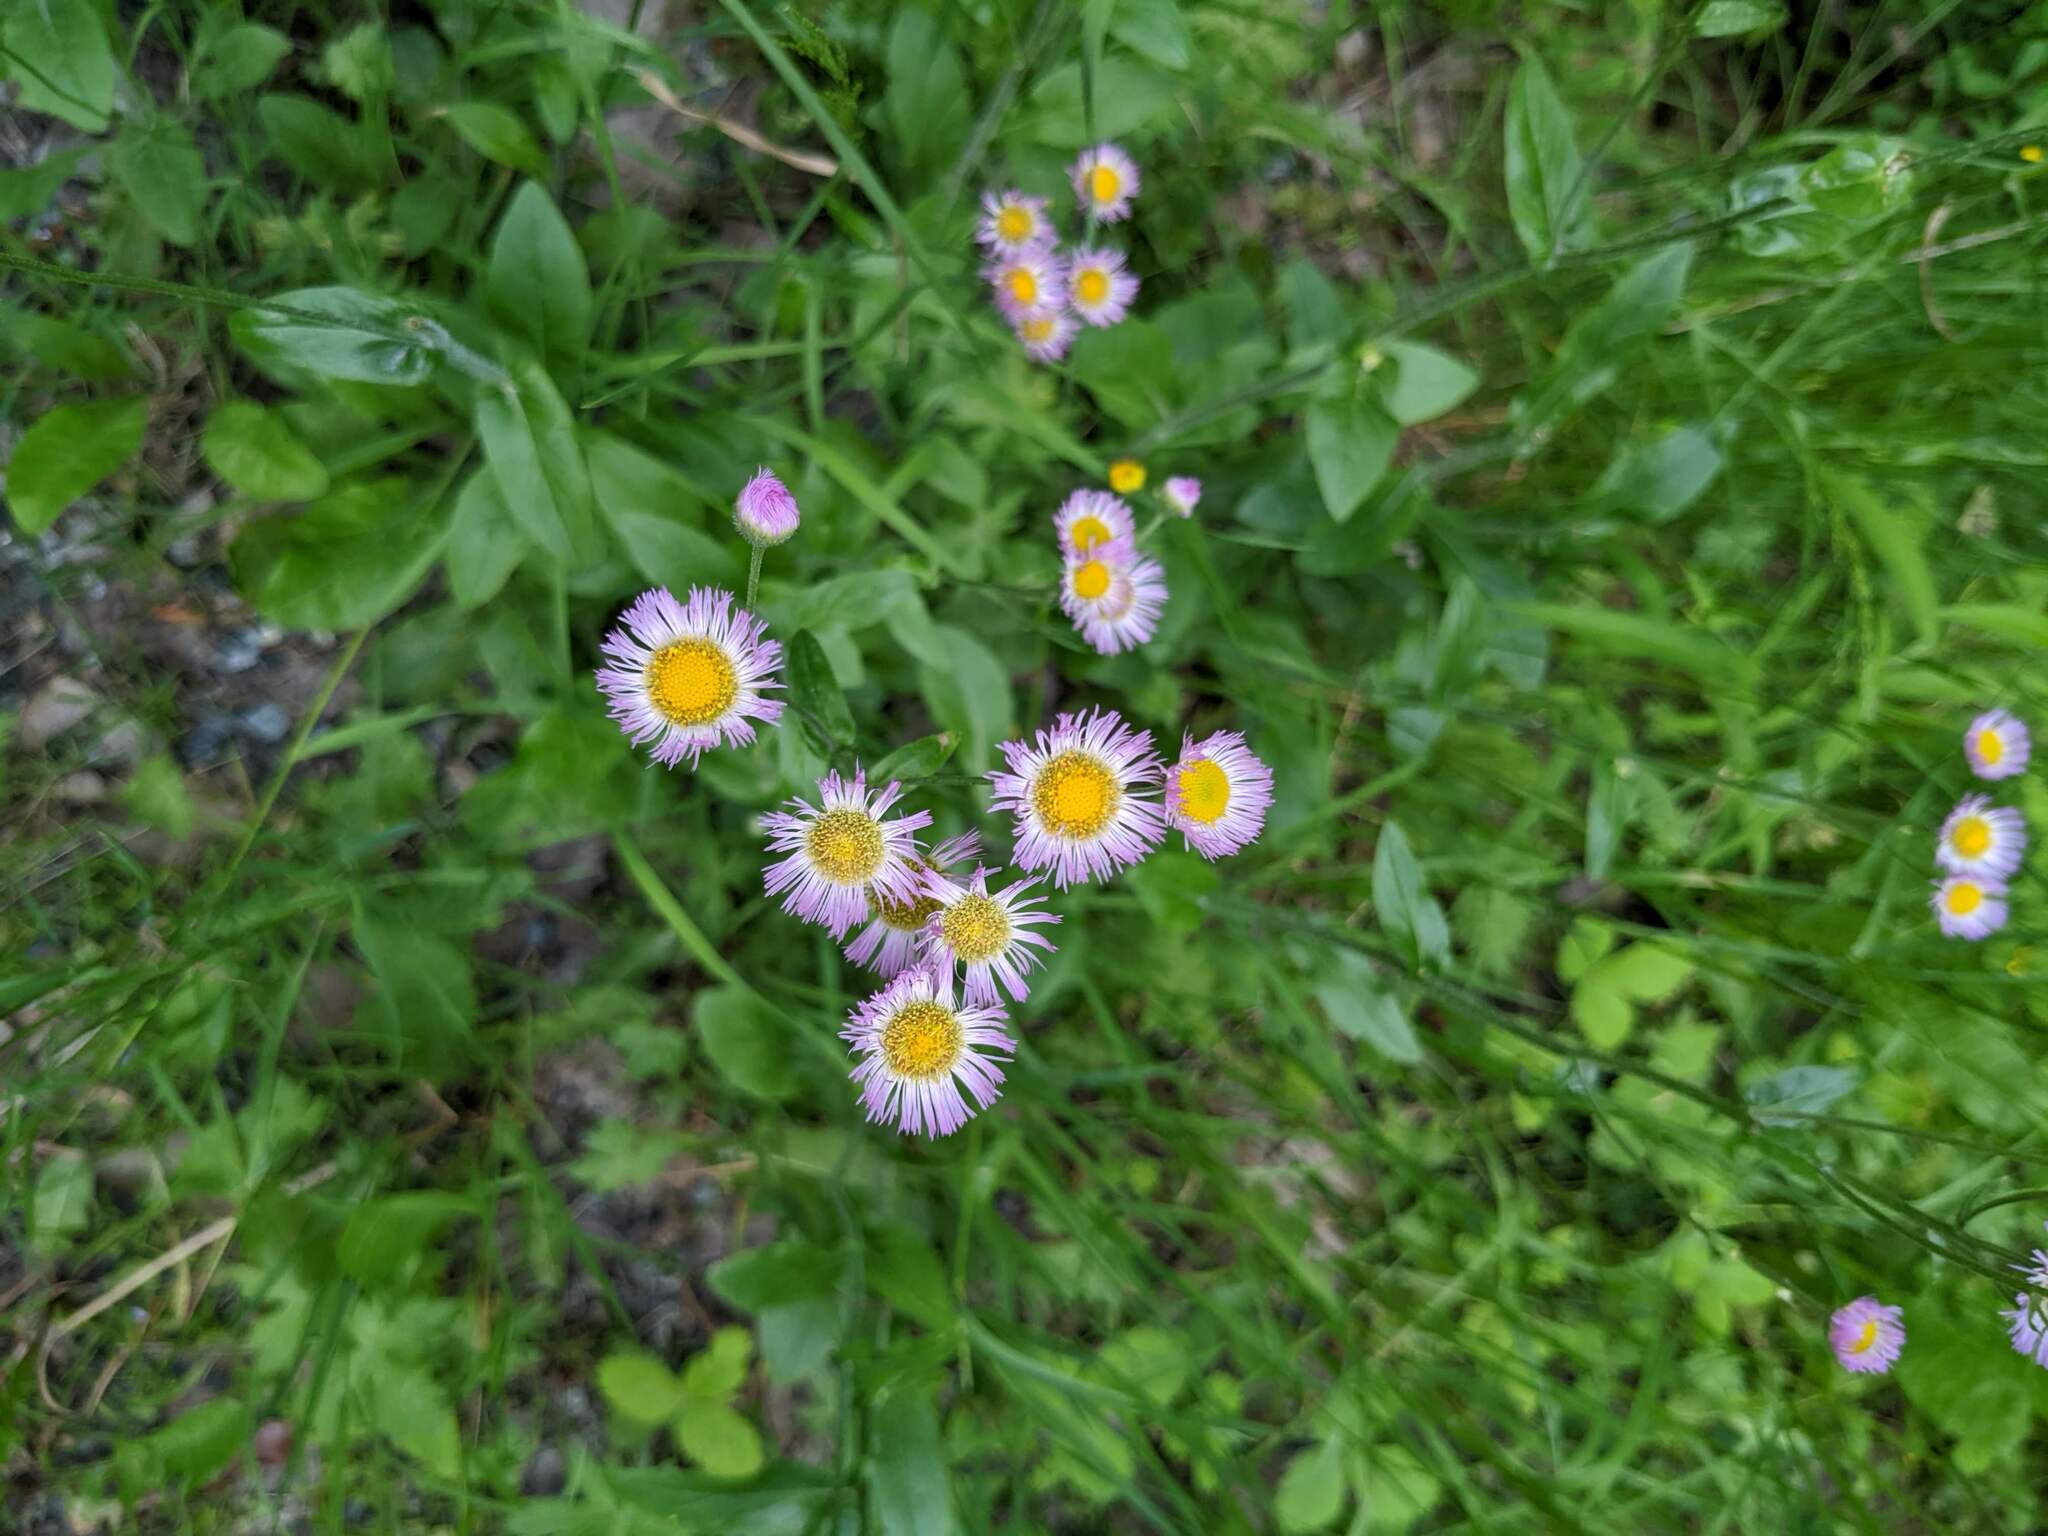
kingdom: Plantae
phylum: Tracheophyta
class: Magnoliopsida
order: Asterales
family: Asteraceae
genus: Erigeron
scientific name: Erigeron philadelphicus
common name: Robin's-plantain
